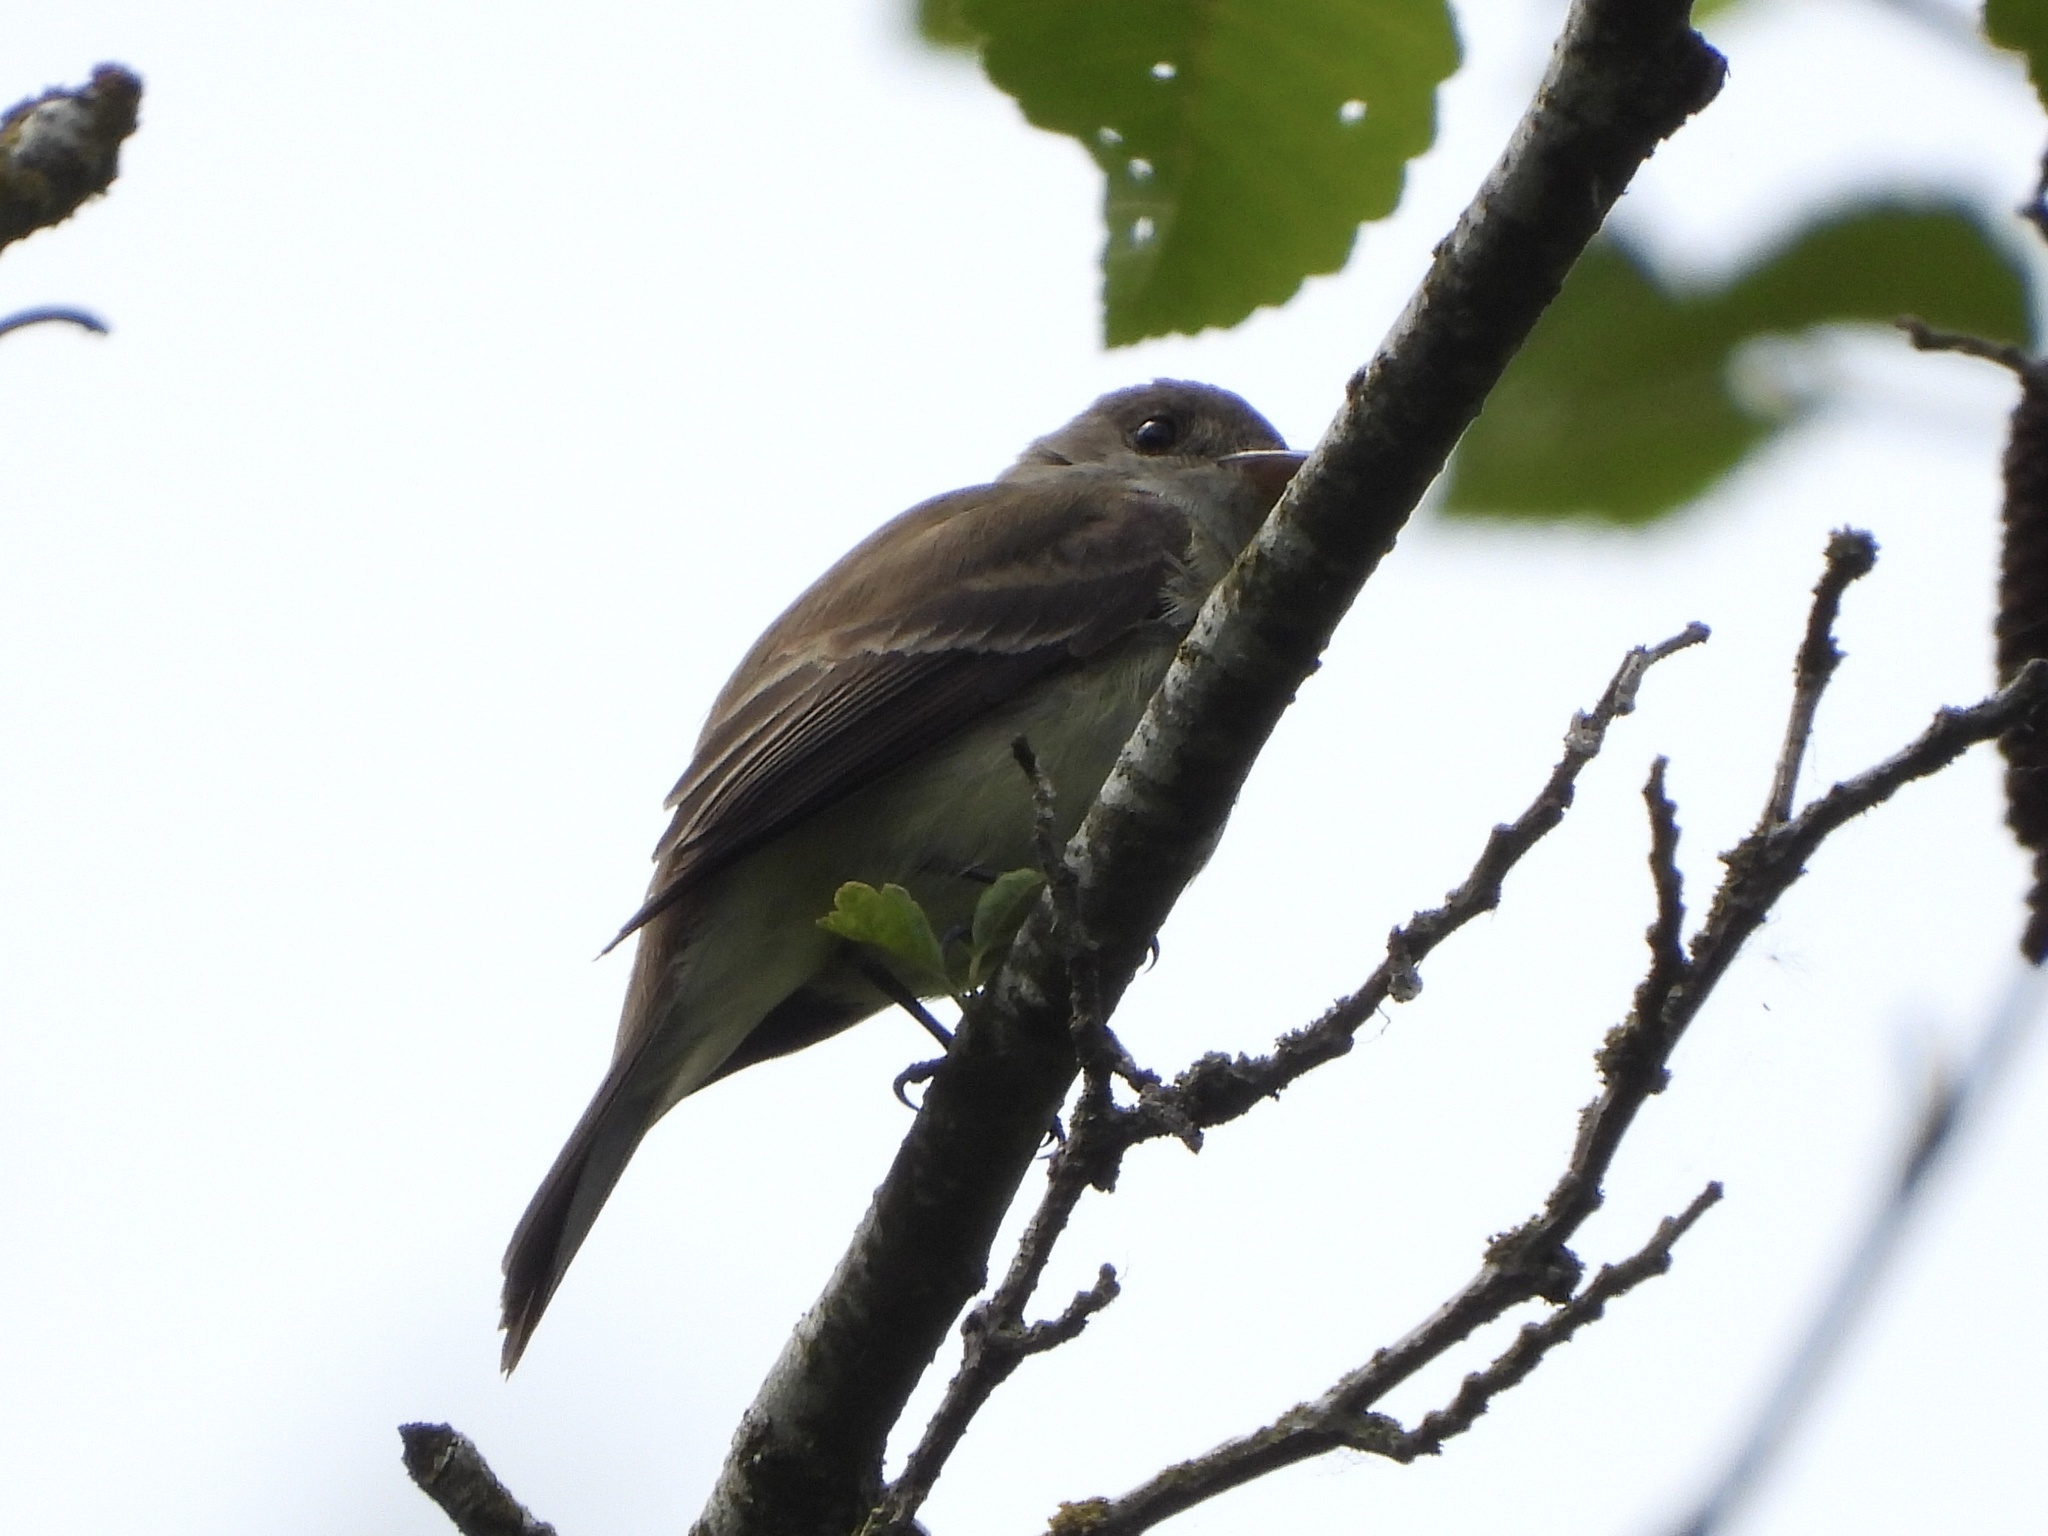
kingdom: Animalia
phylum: Chordata
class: Aves
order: Passeriformes
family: Tyrannidae
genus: Empidonax
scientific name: Empidonax traillii
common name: Willow flycatcher
